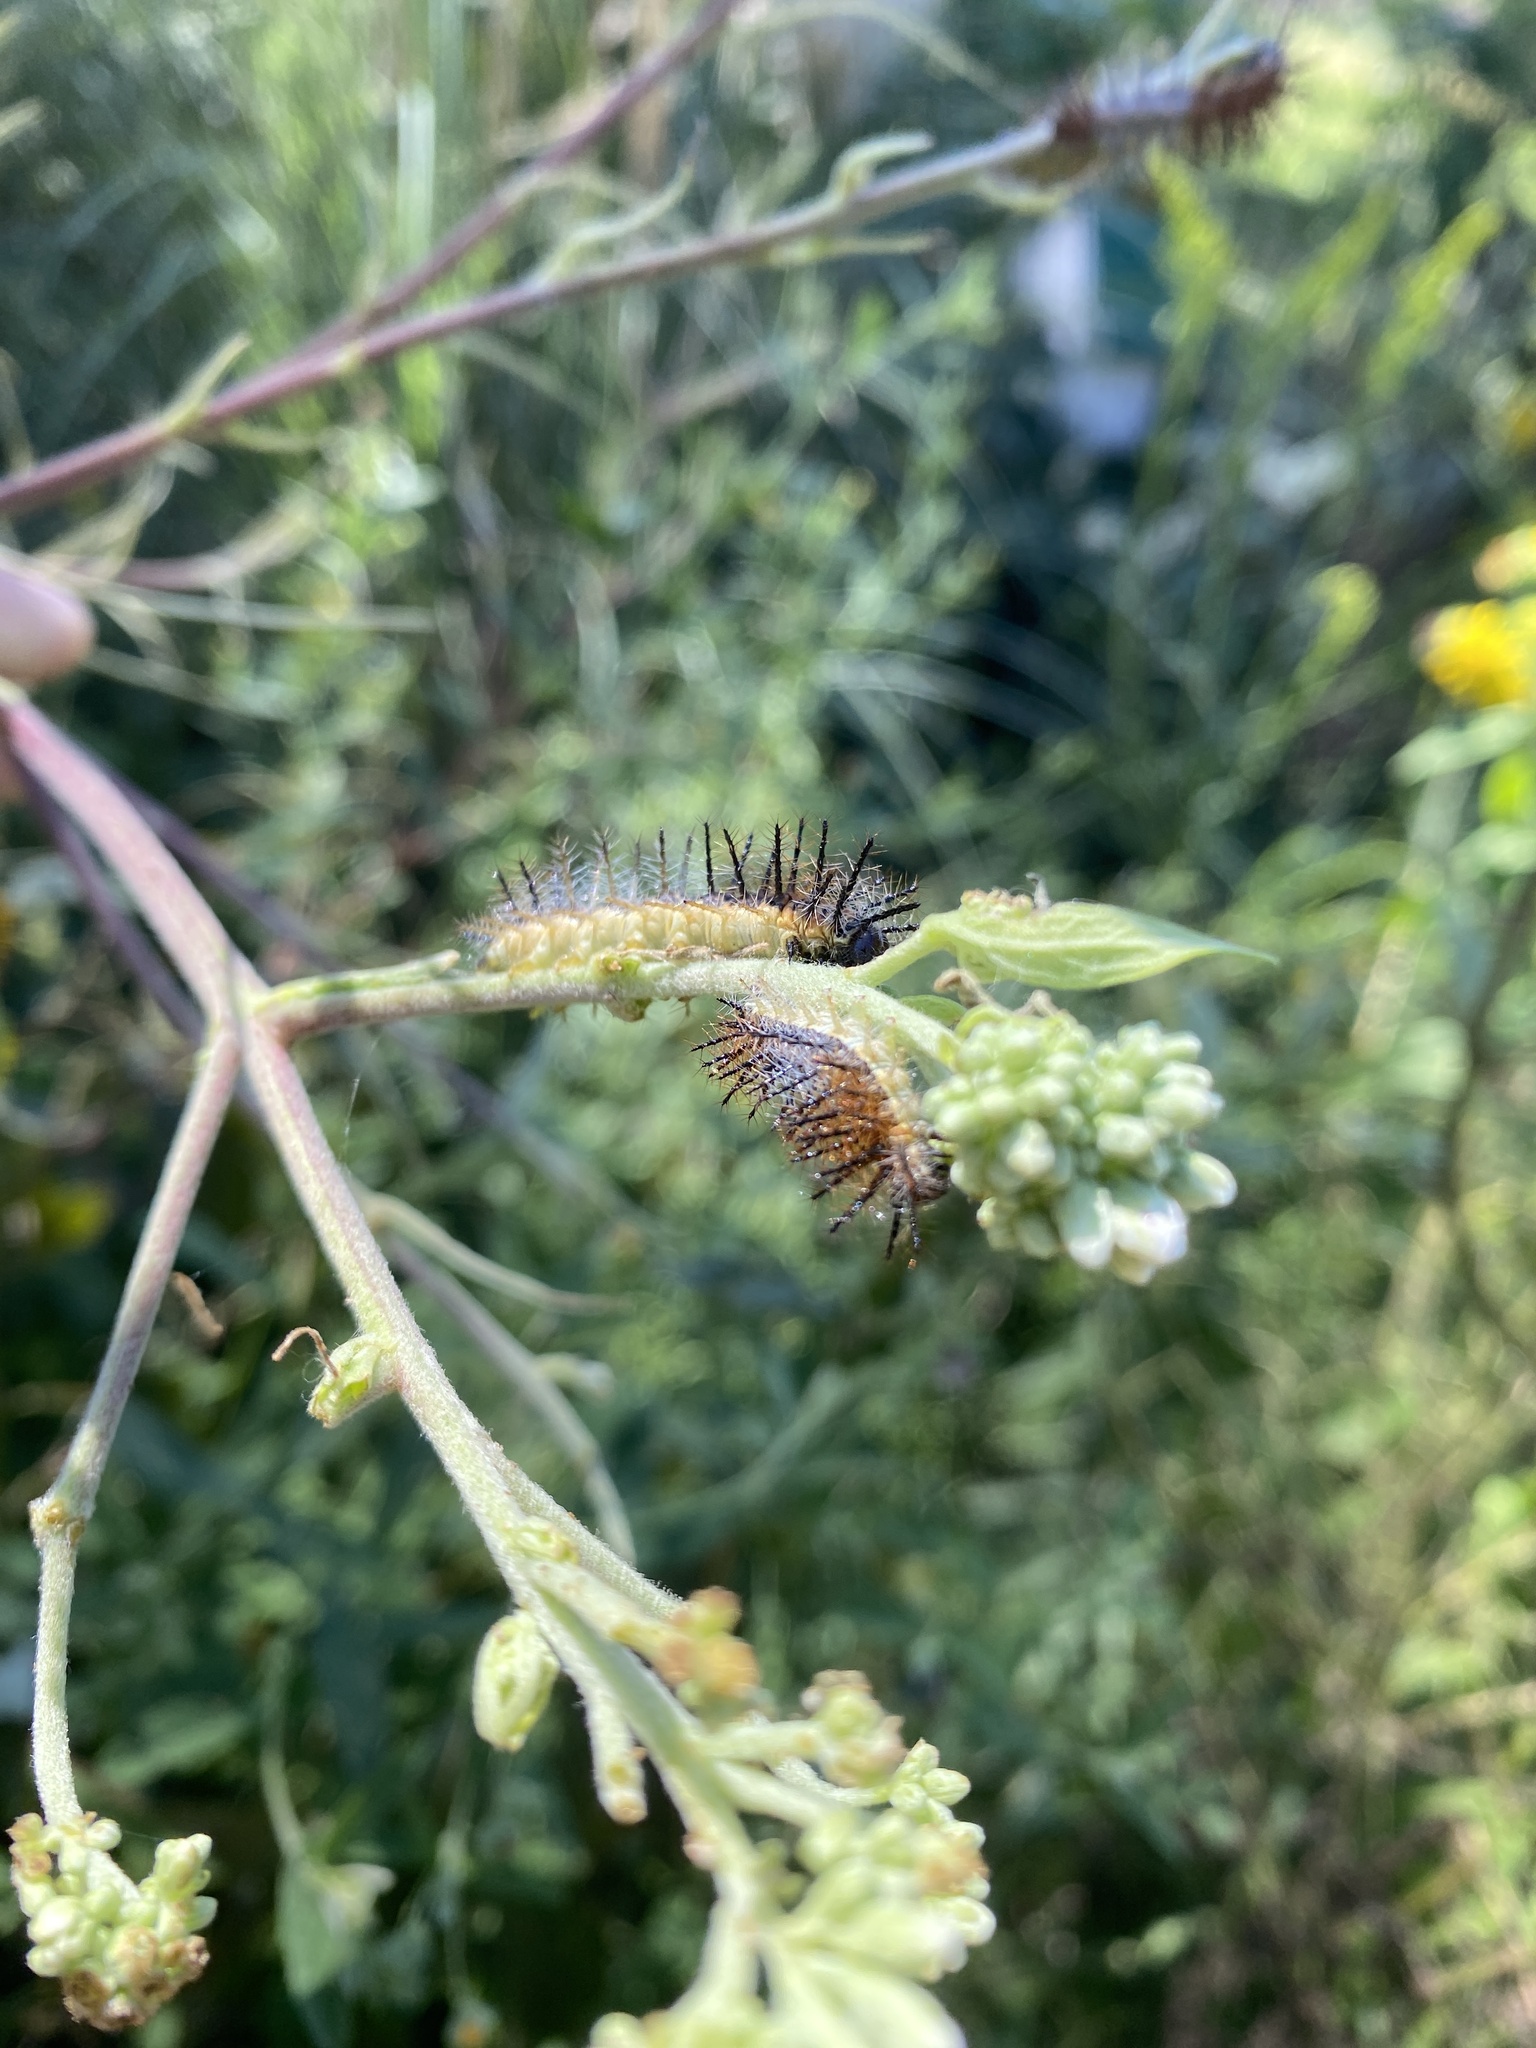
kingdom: Animalia
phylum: Arthropoda
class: Insecta
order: Lepidoptera
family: Nymphalidae
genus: Actinote
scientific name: Actinote pellenea
